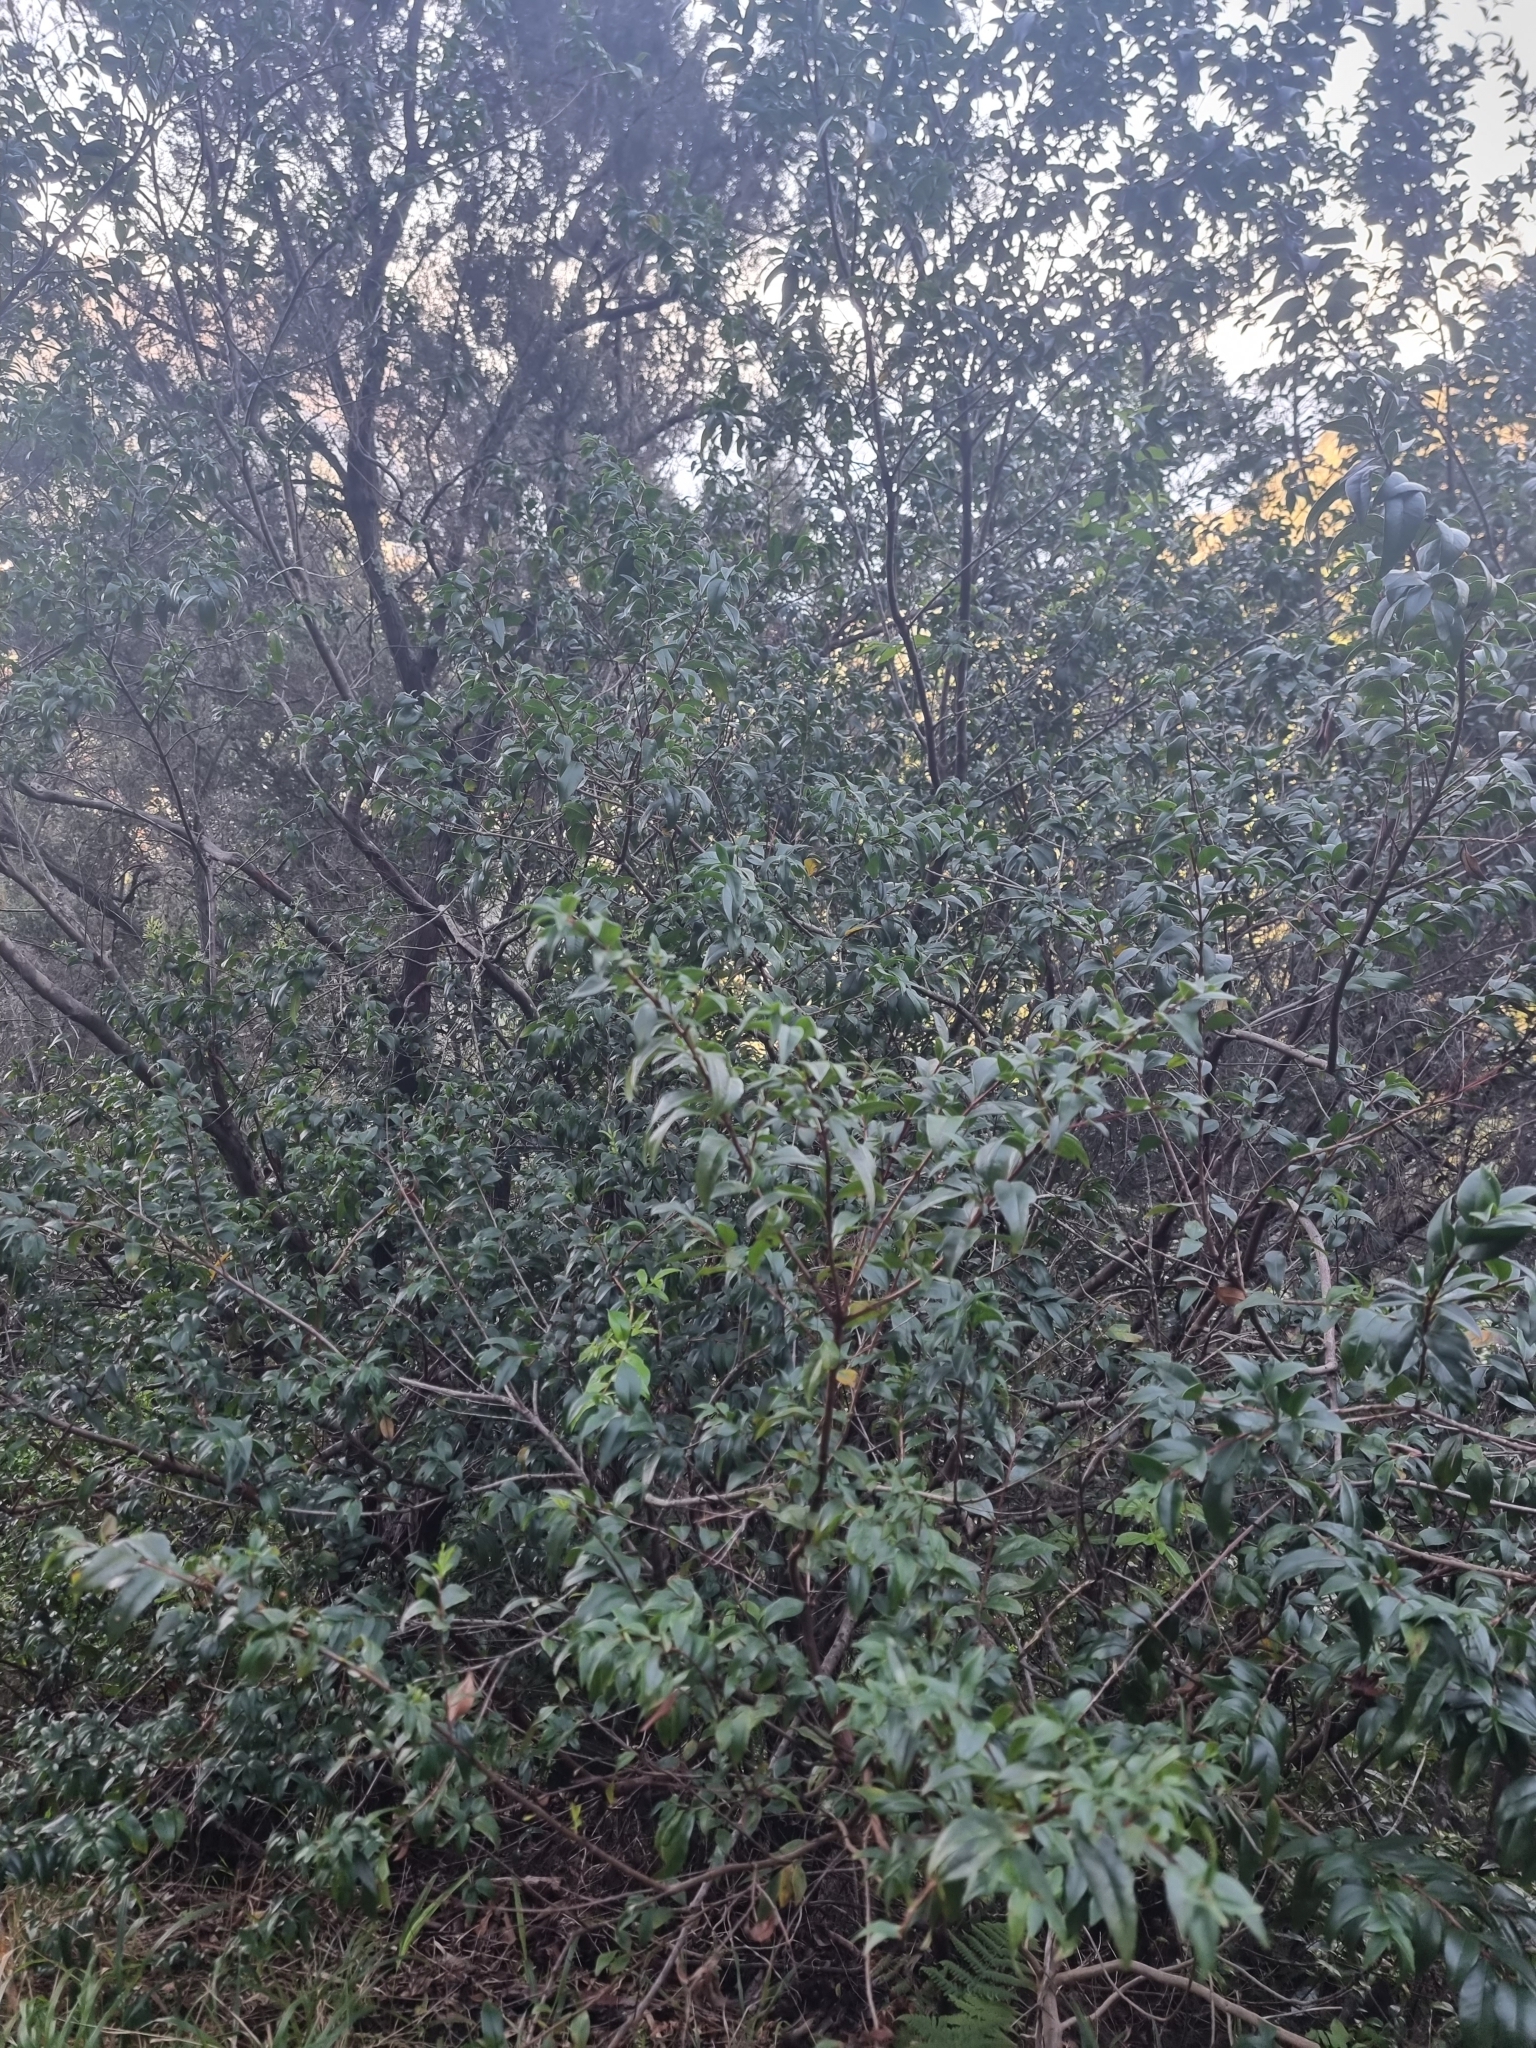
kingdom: Plantae
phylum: Tracheophyta
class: Magnoliopsida
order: Myrtales
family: Myrtaceae
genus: Myrtus
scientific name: Myrtus communis
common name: Myrtle
